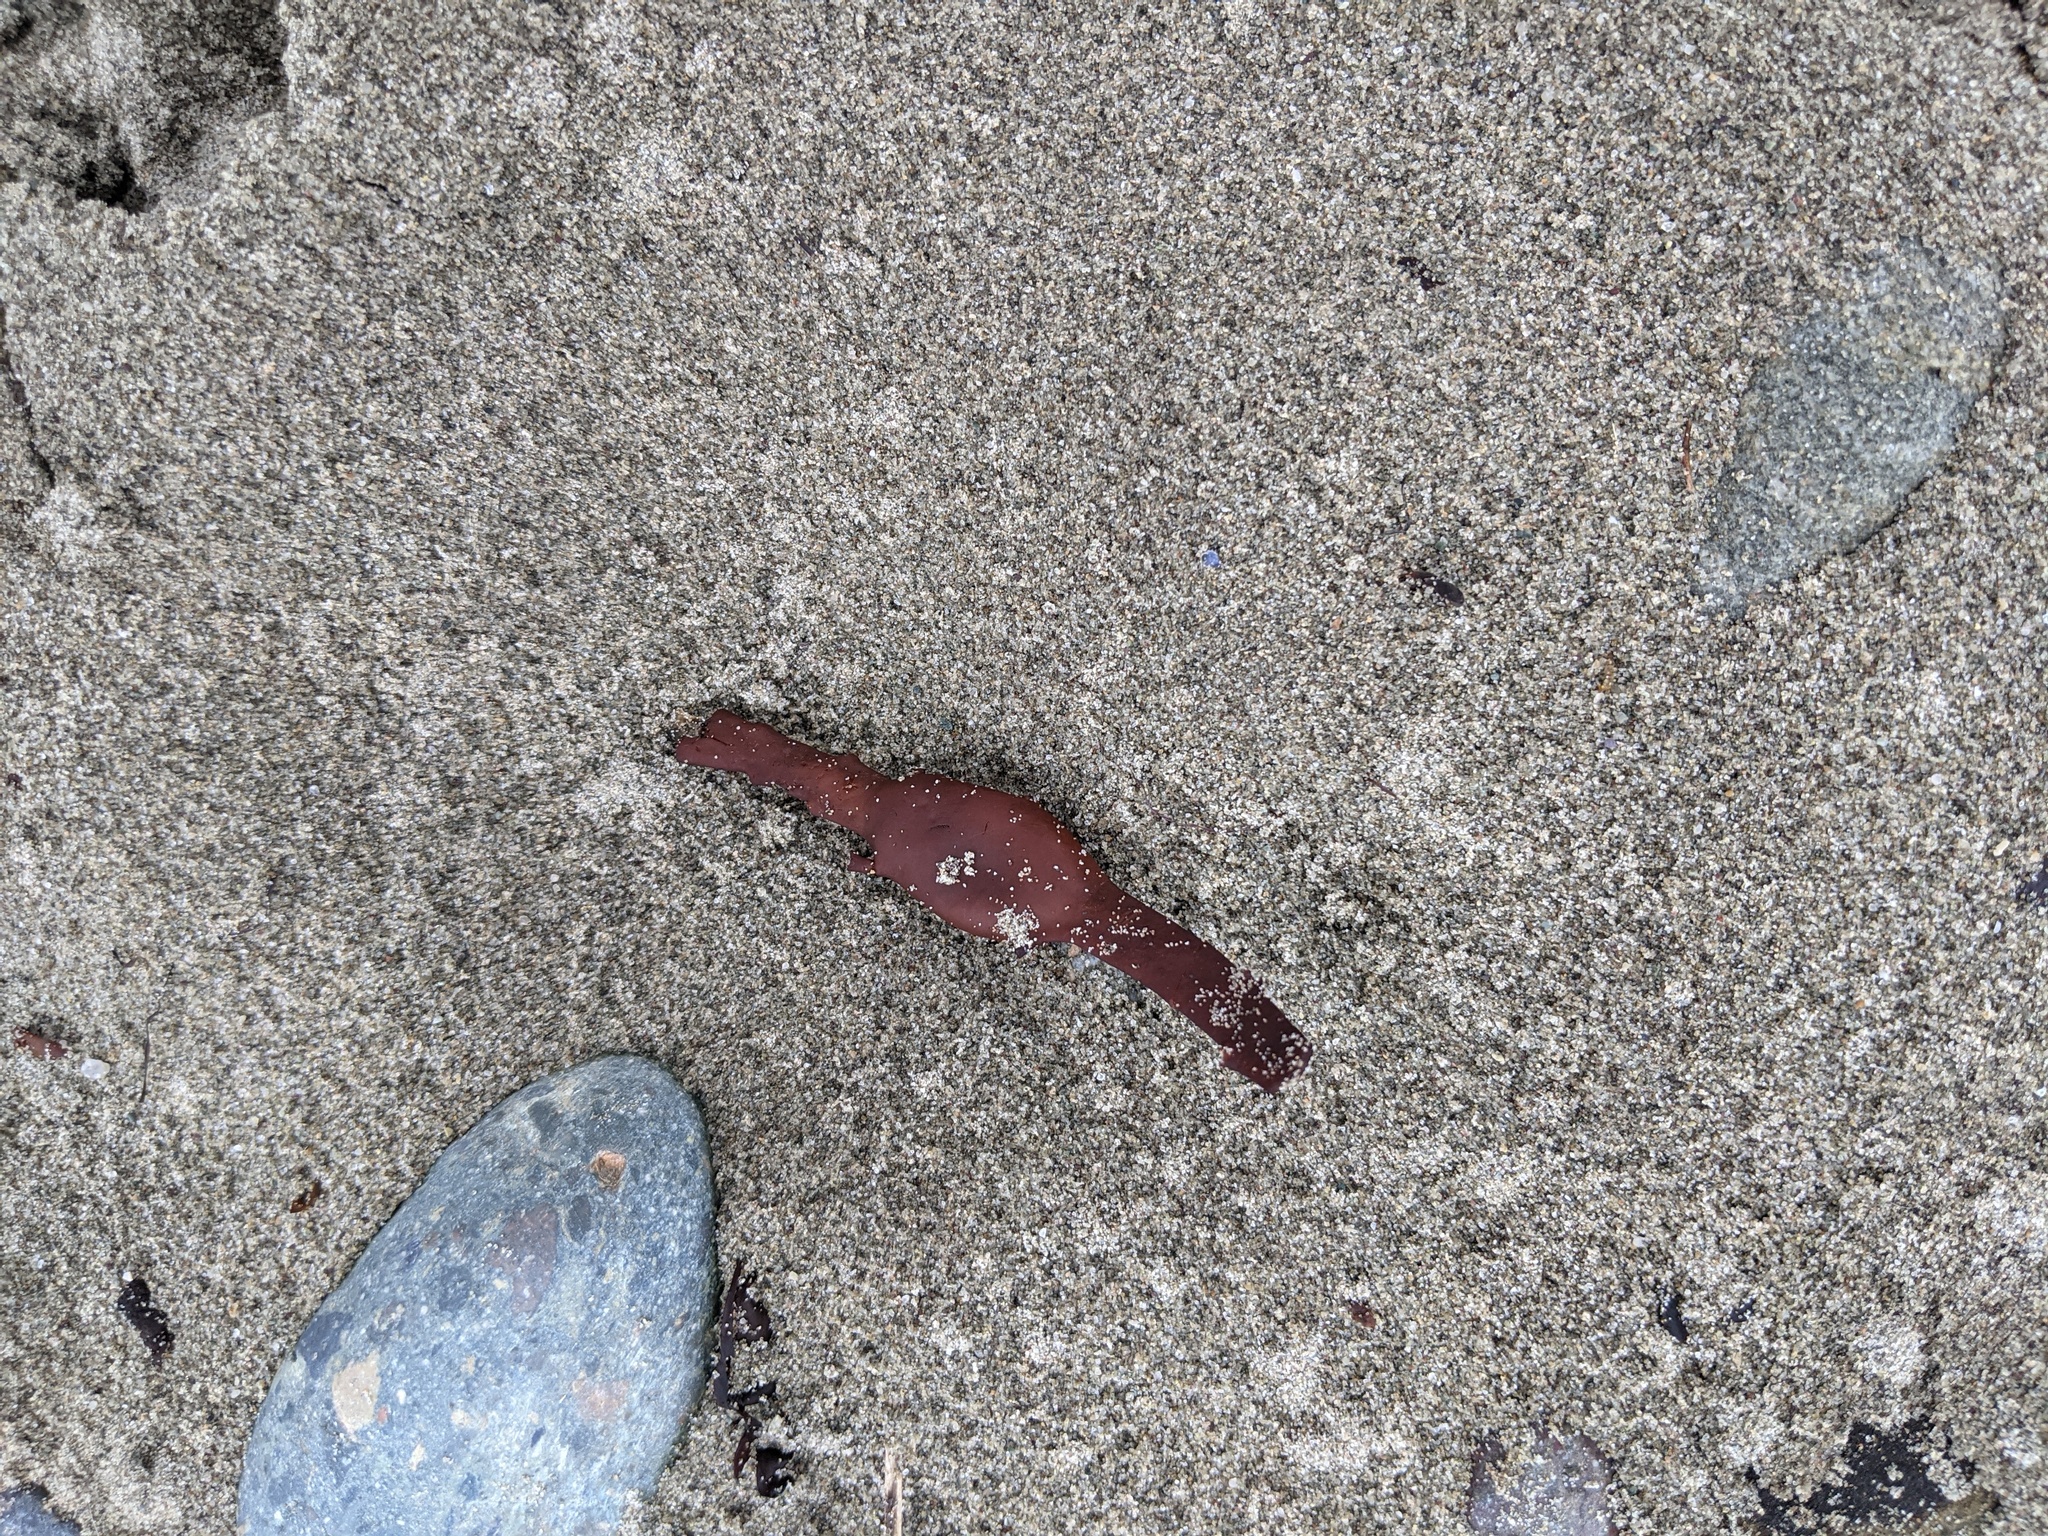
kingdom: Chromista
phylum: Ochrophyta
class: Phaeophyceae
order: Fucales
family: Fucaceae
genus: Ascophyllum
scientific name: Ascophyllum nodosum
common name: Knotted wrack
